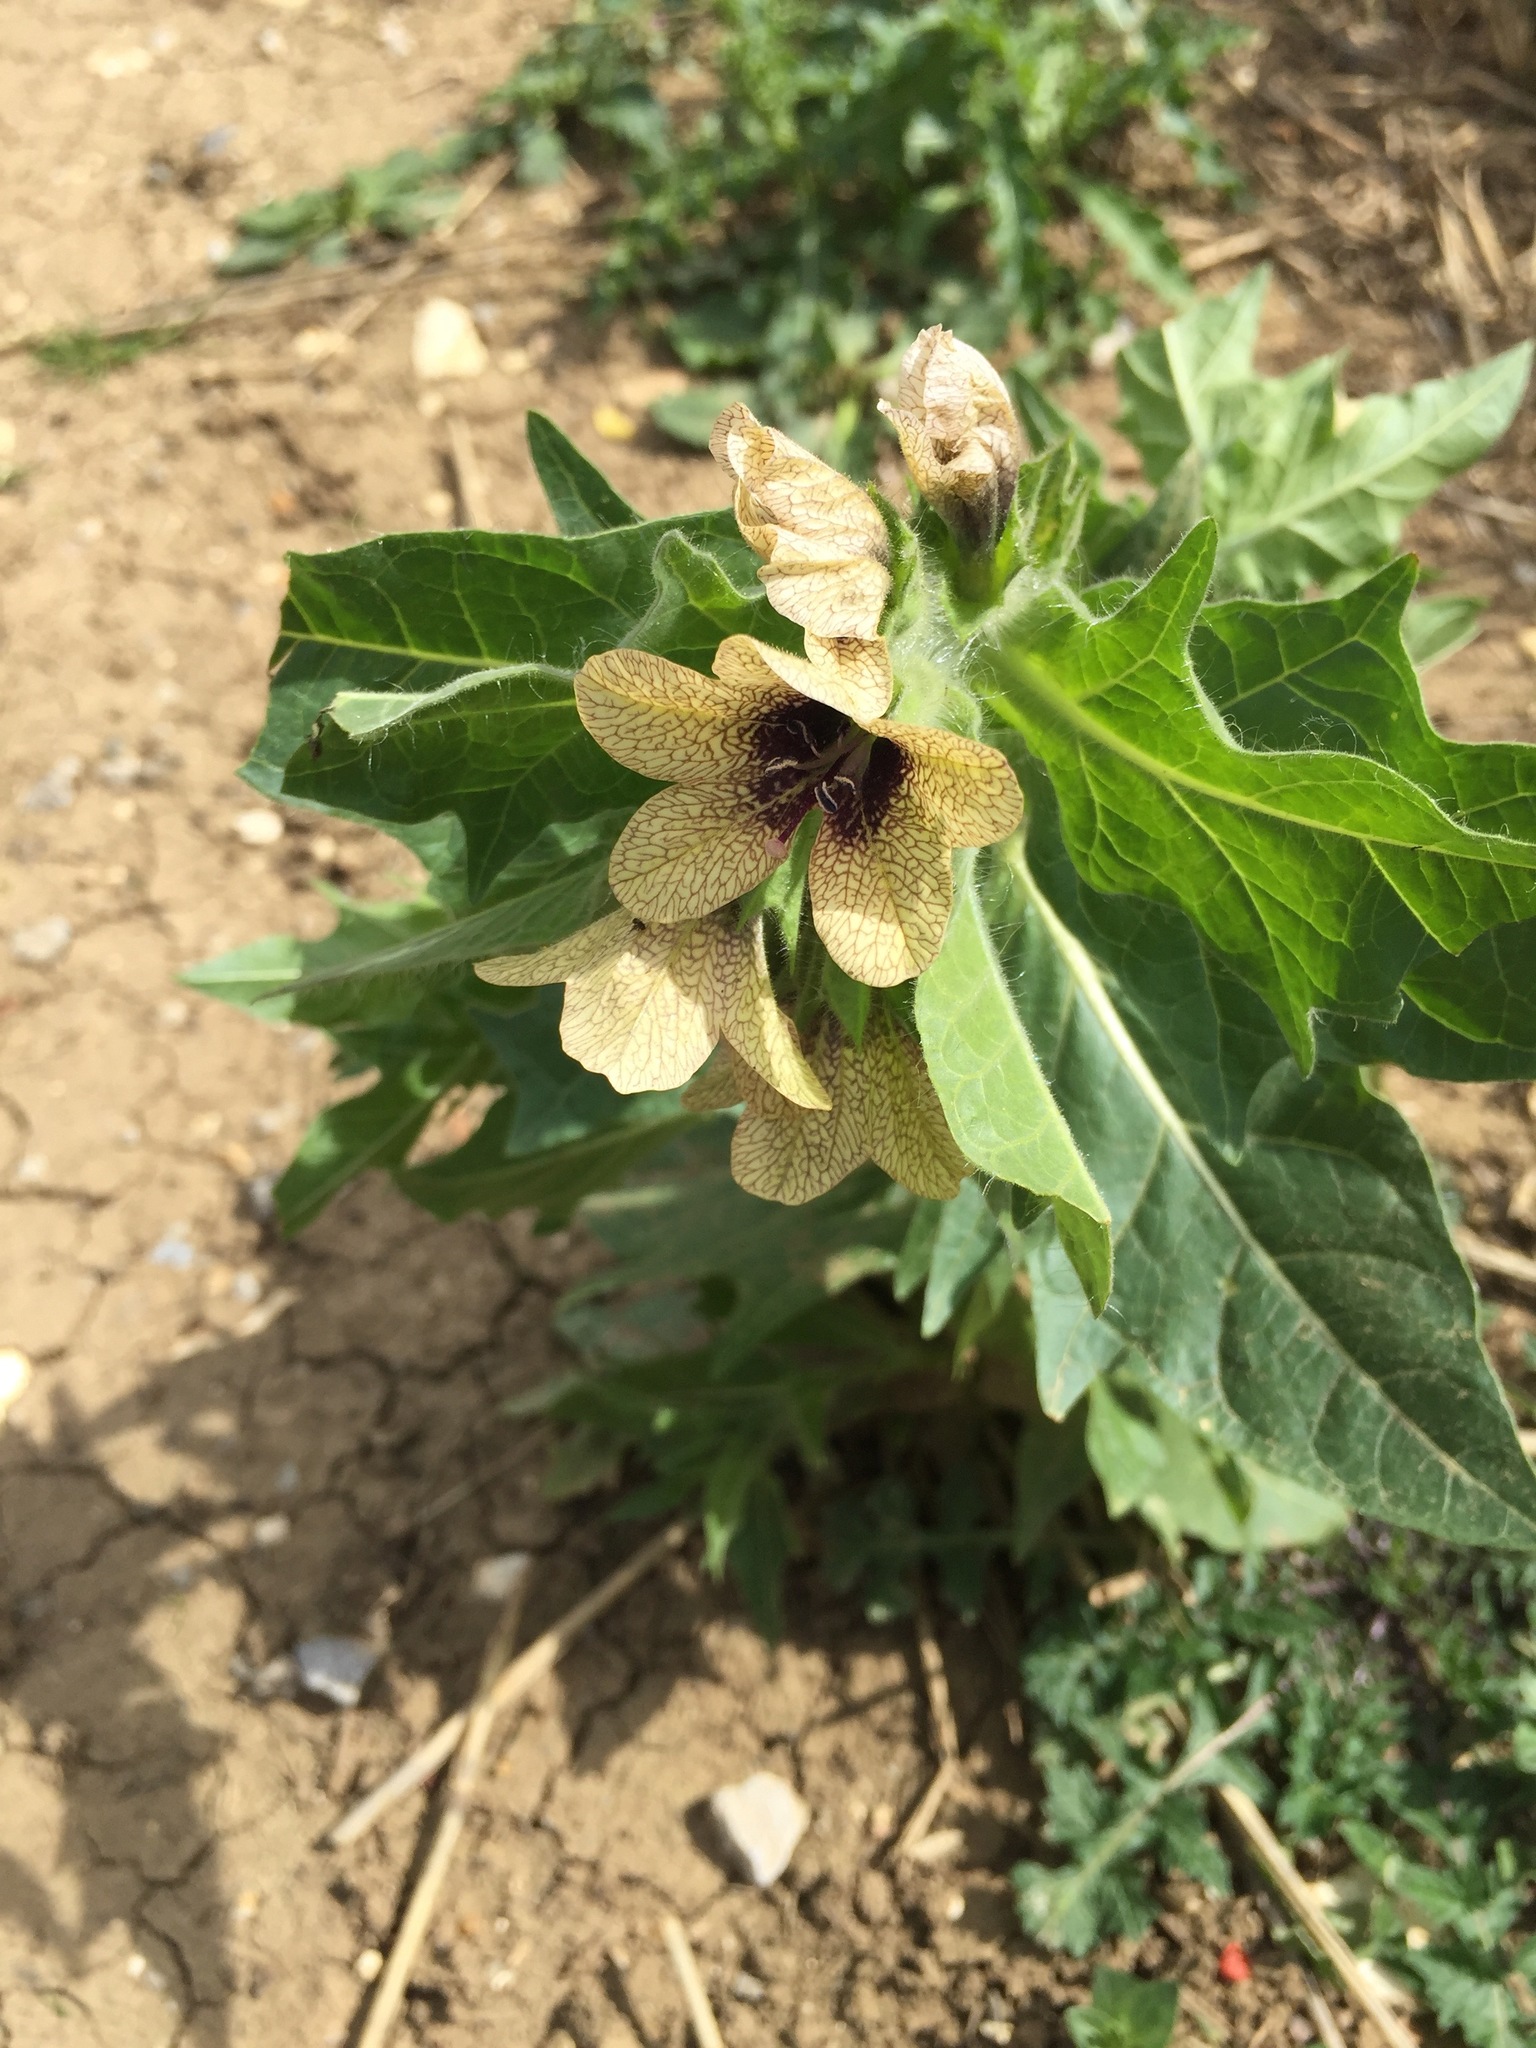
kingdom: Plantae
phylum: Tracheophyta
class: Magnoliopsida
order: Solanales
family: Solanaceae
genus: Hyoscyamus
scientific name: Hyoscyamus niger
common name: Henbane
